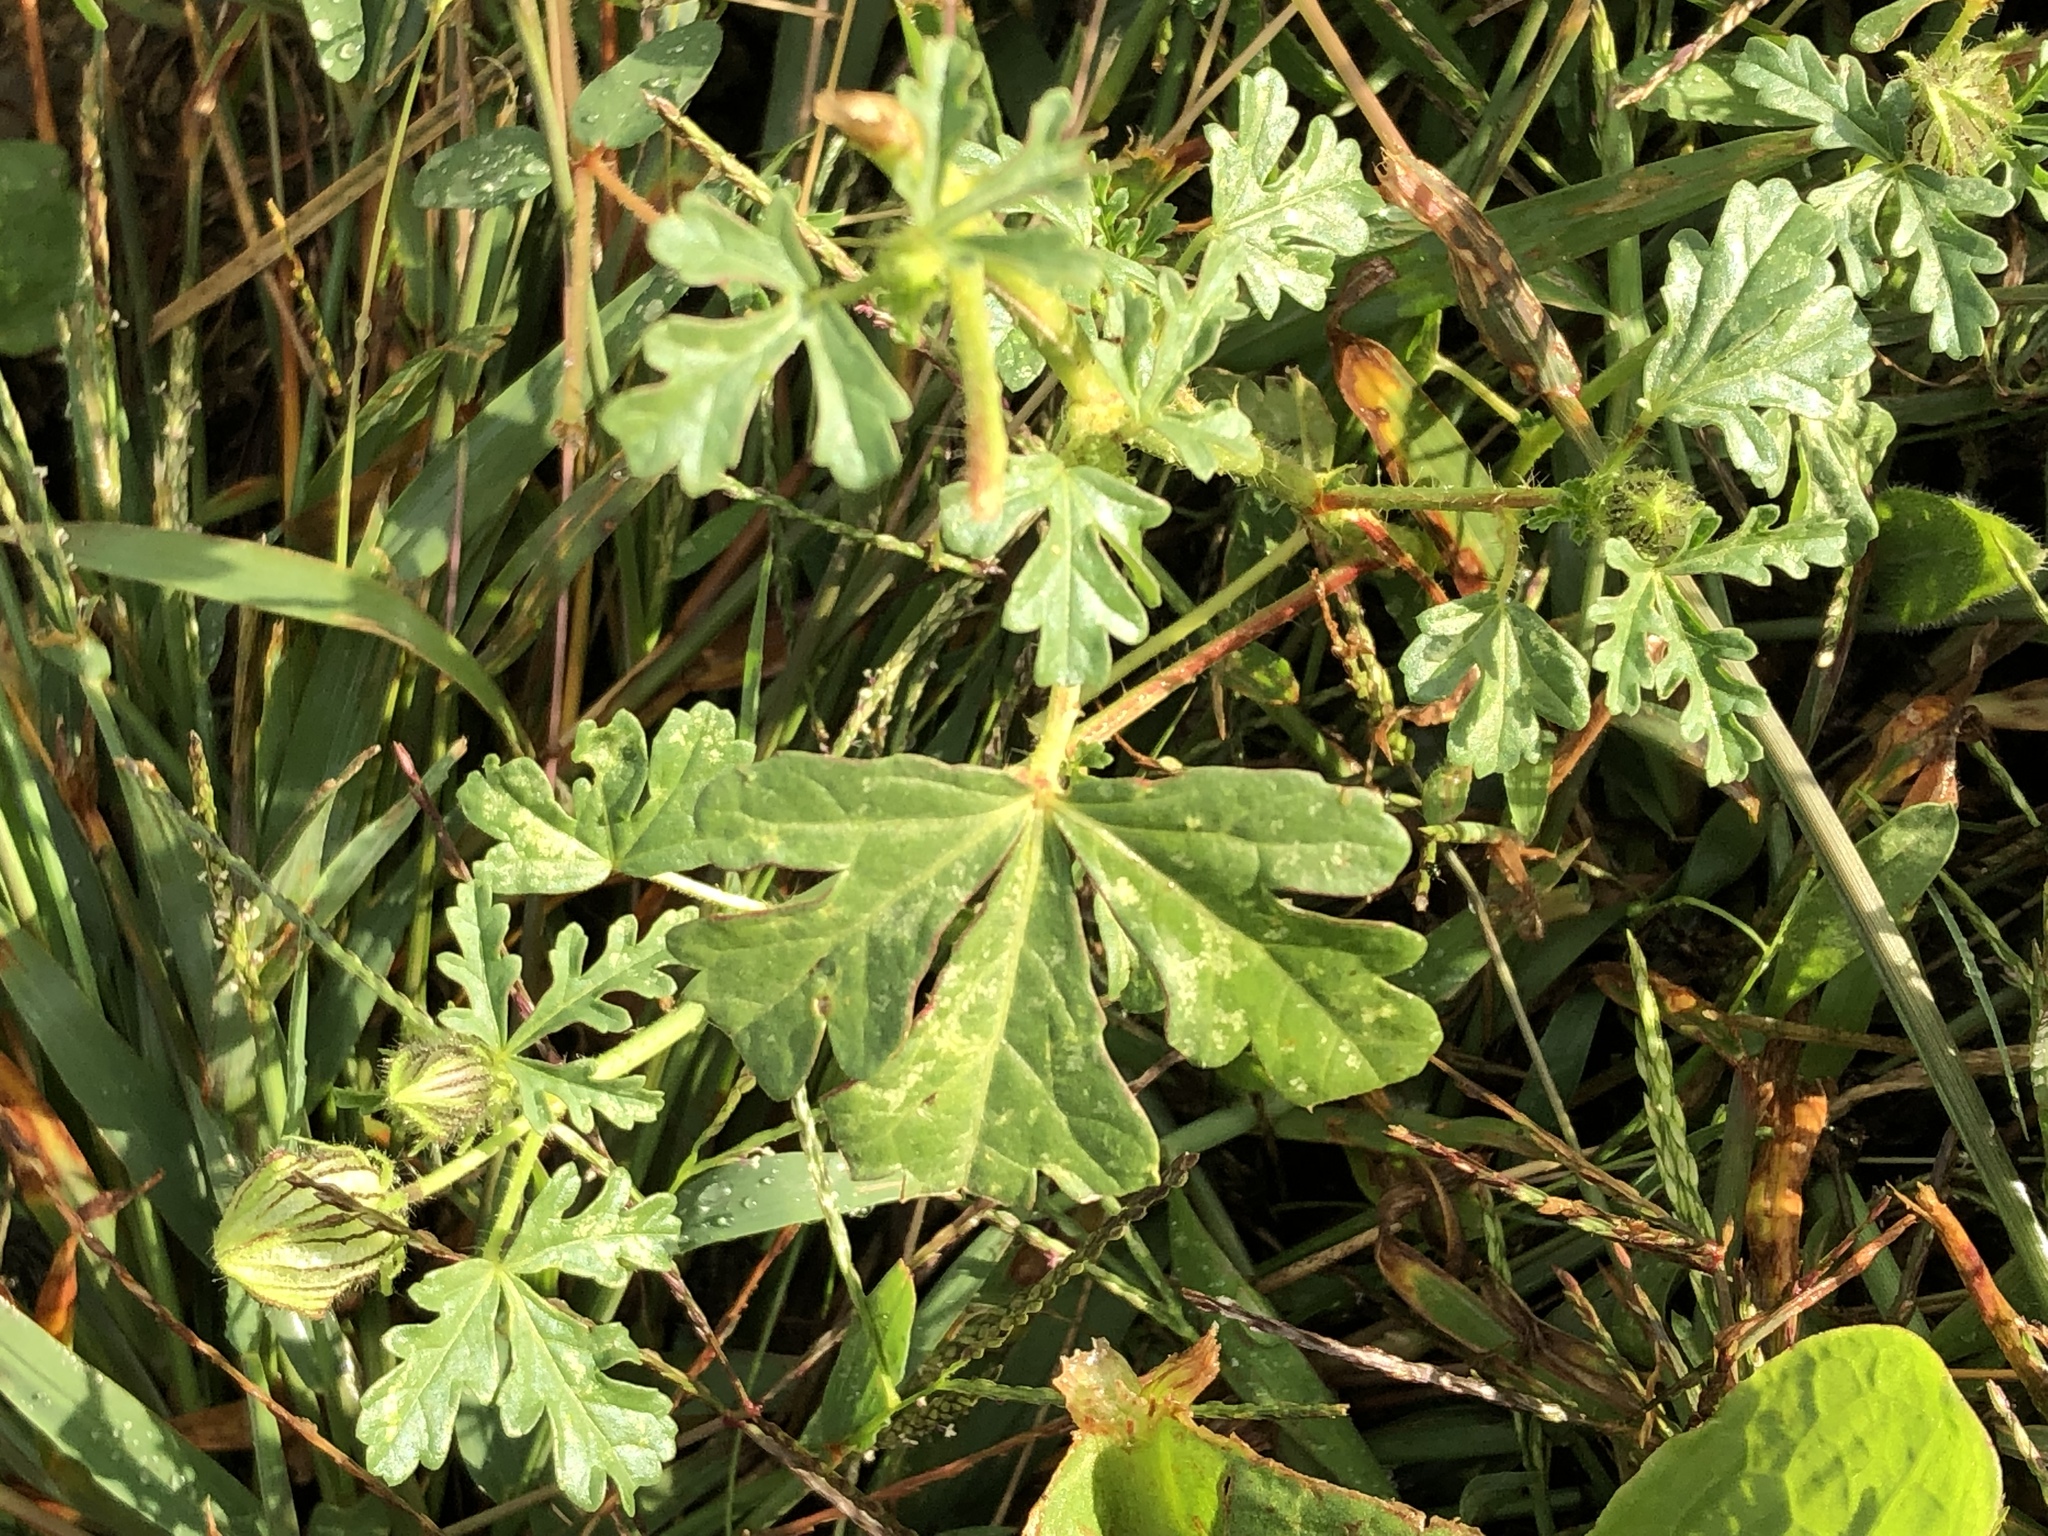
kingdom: Plantae
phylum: Tracheophyta
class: Magnoliopsida
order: Malvales
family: Malvaceae
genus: Hibiscus
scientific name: Hibiscus trionum
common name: Bladder ketmia
